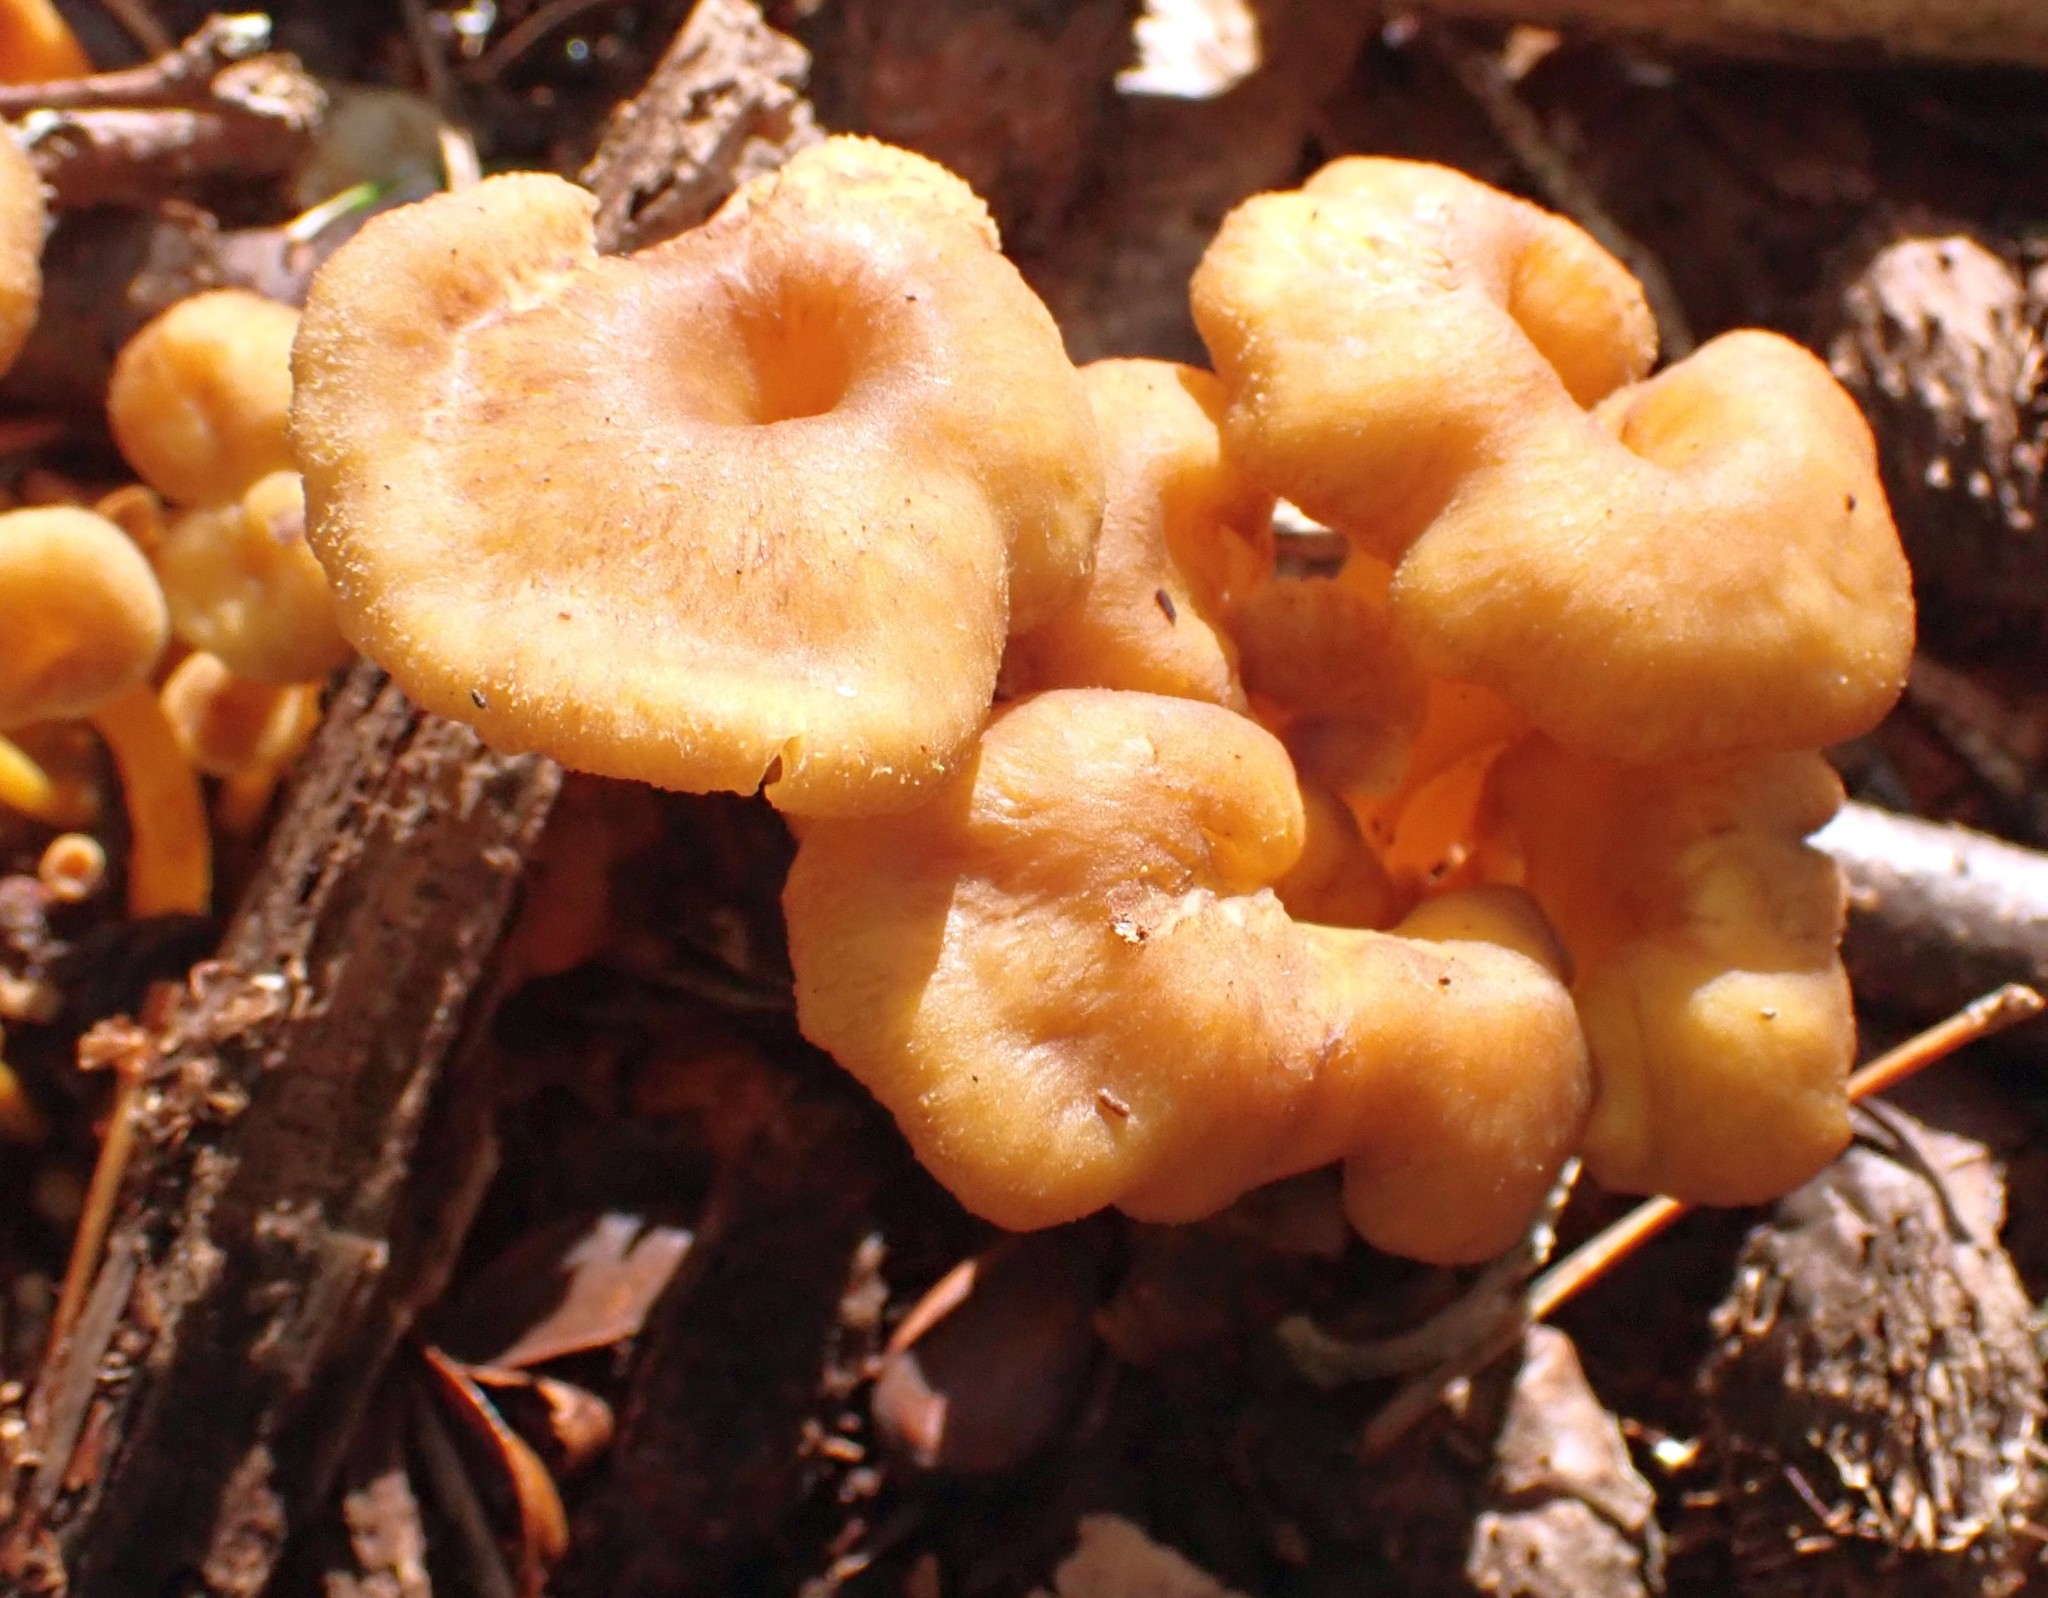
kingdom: Fungi
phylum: Basidiomycota
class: Agaricomycetes
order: Cantharellales
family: Hydnaceae
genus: Craterellus
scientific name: Craterellus tubaeformis
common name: Yellowfoot
